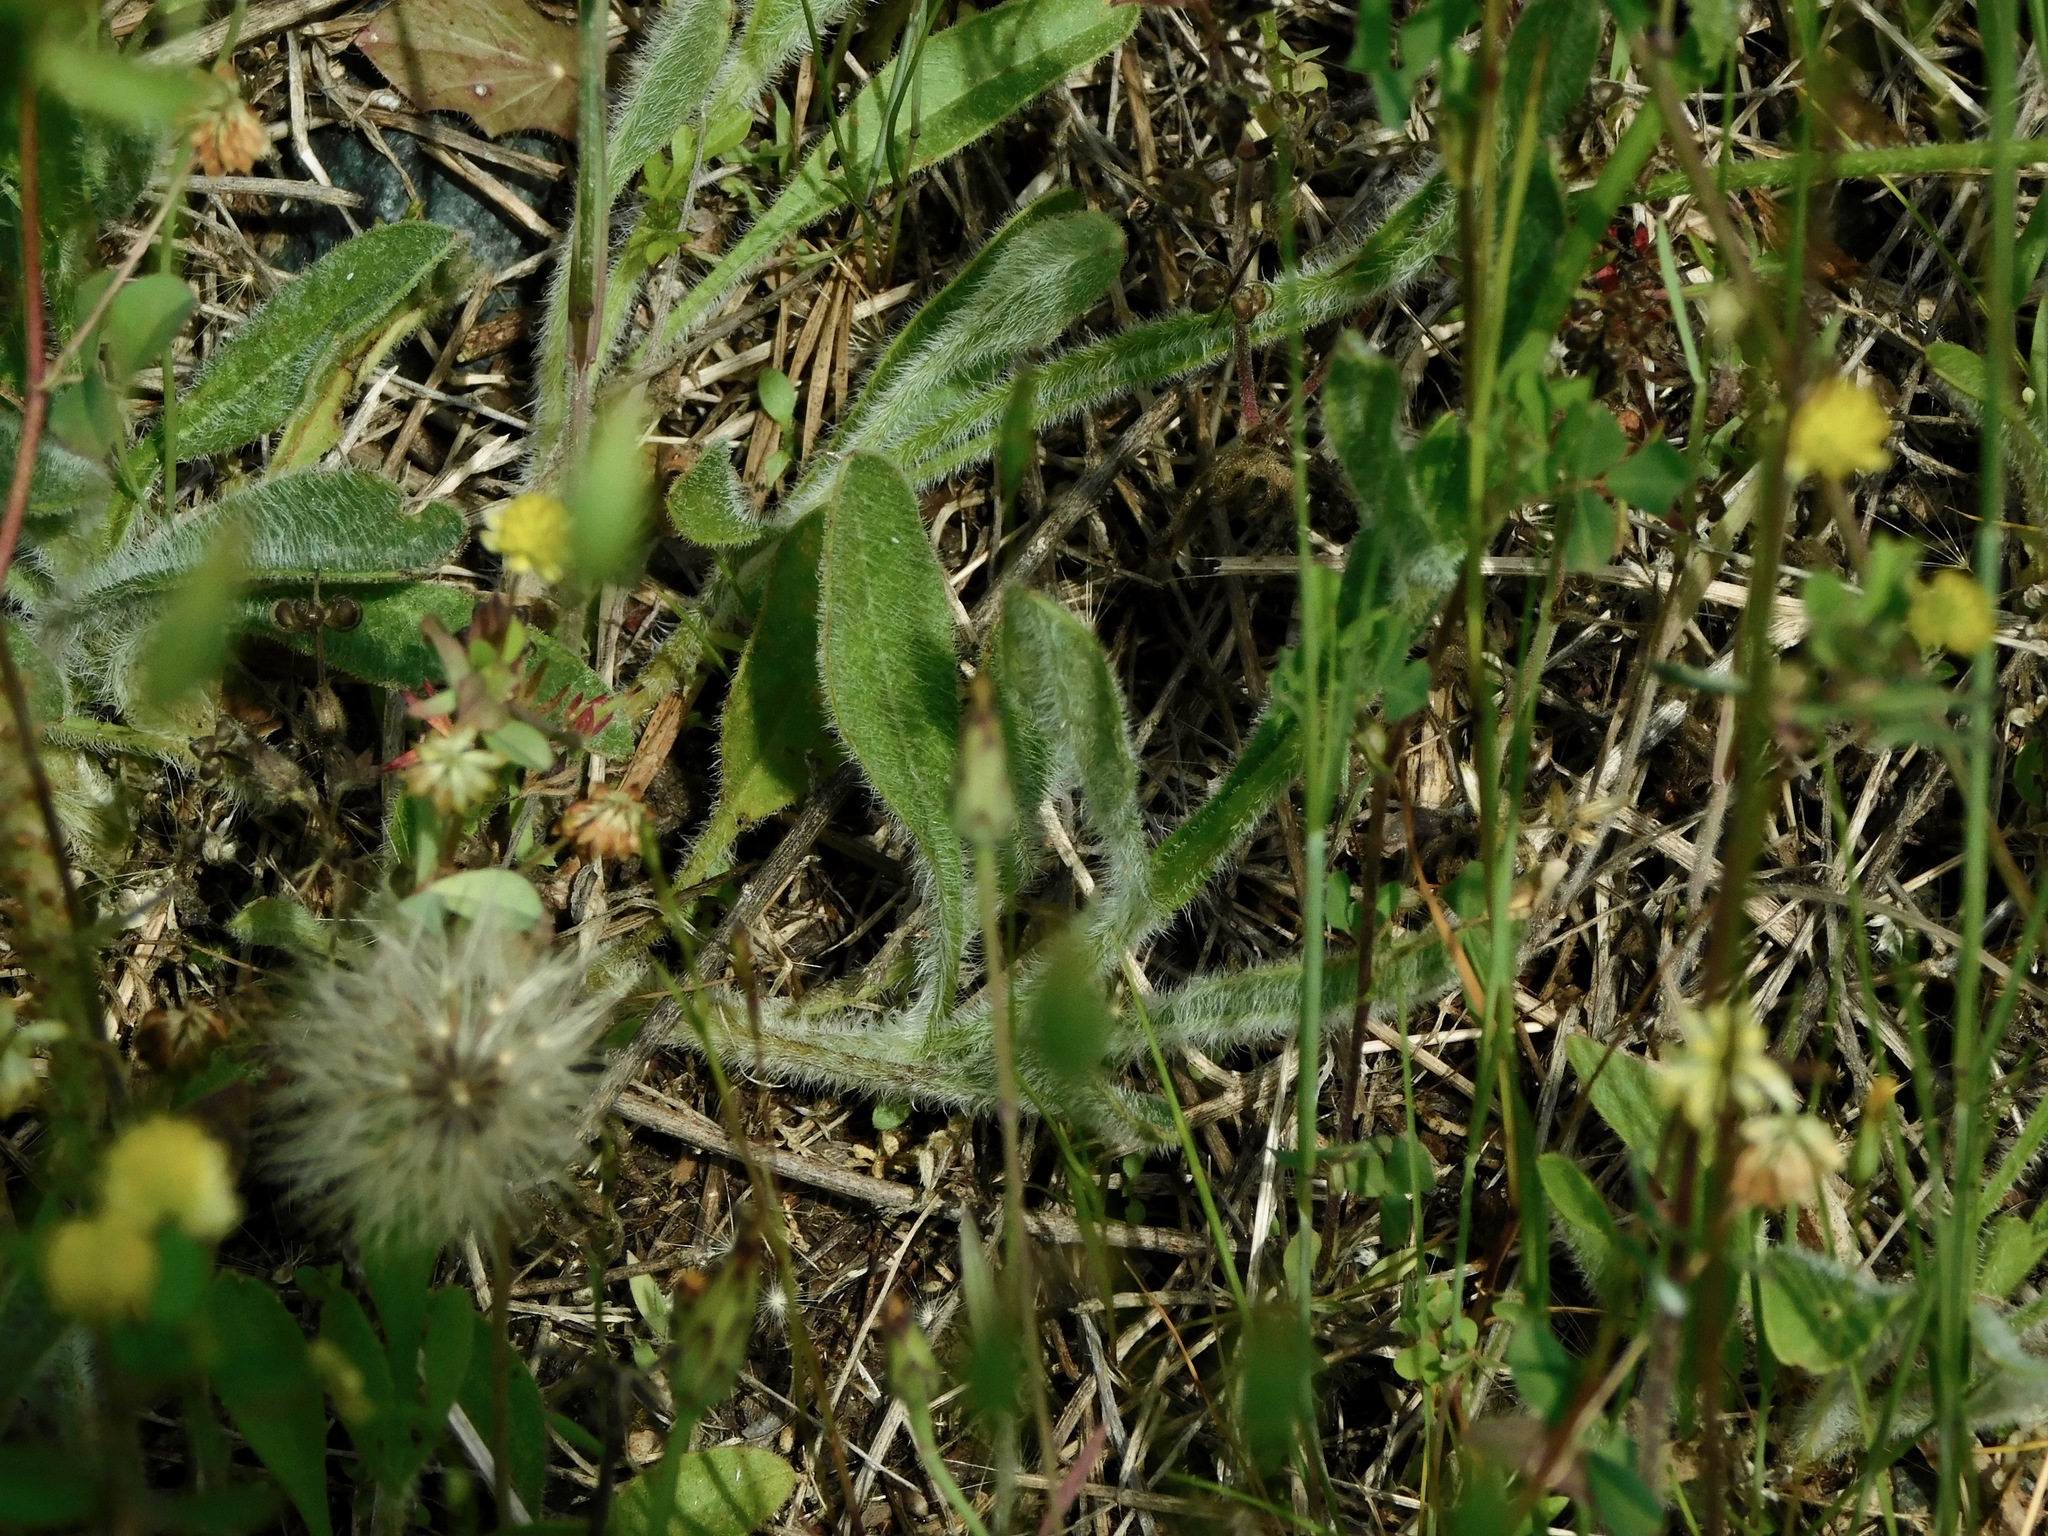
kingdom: Plantae
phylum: Tracheophyta
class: Magnoliopsida
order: Asterales
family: Asteraceae
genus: Coreopsis
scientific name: Coreopsis lanceolata
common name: Garden coreopsis
